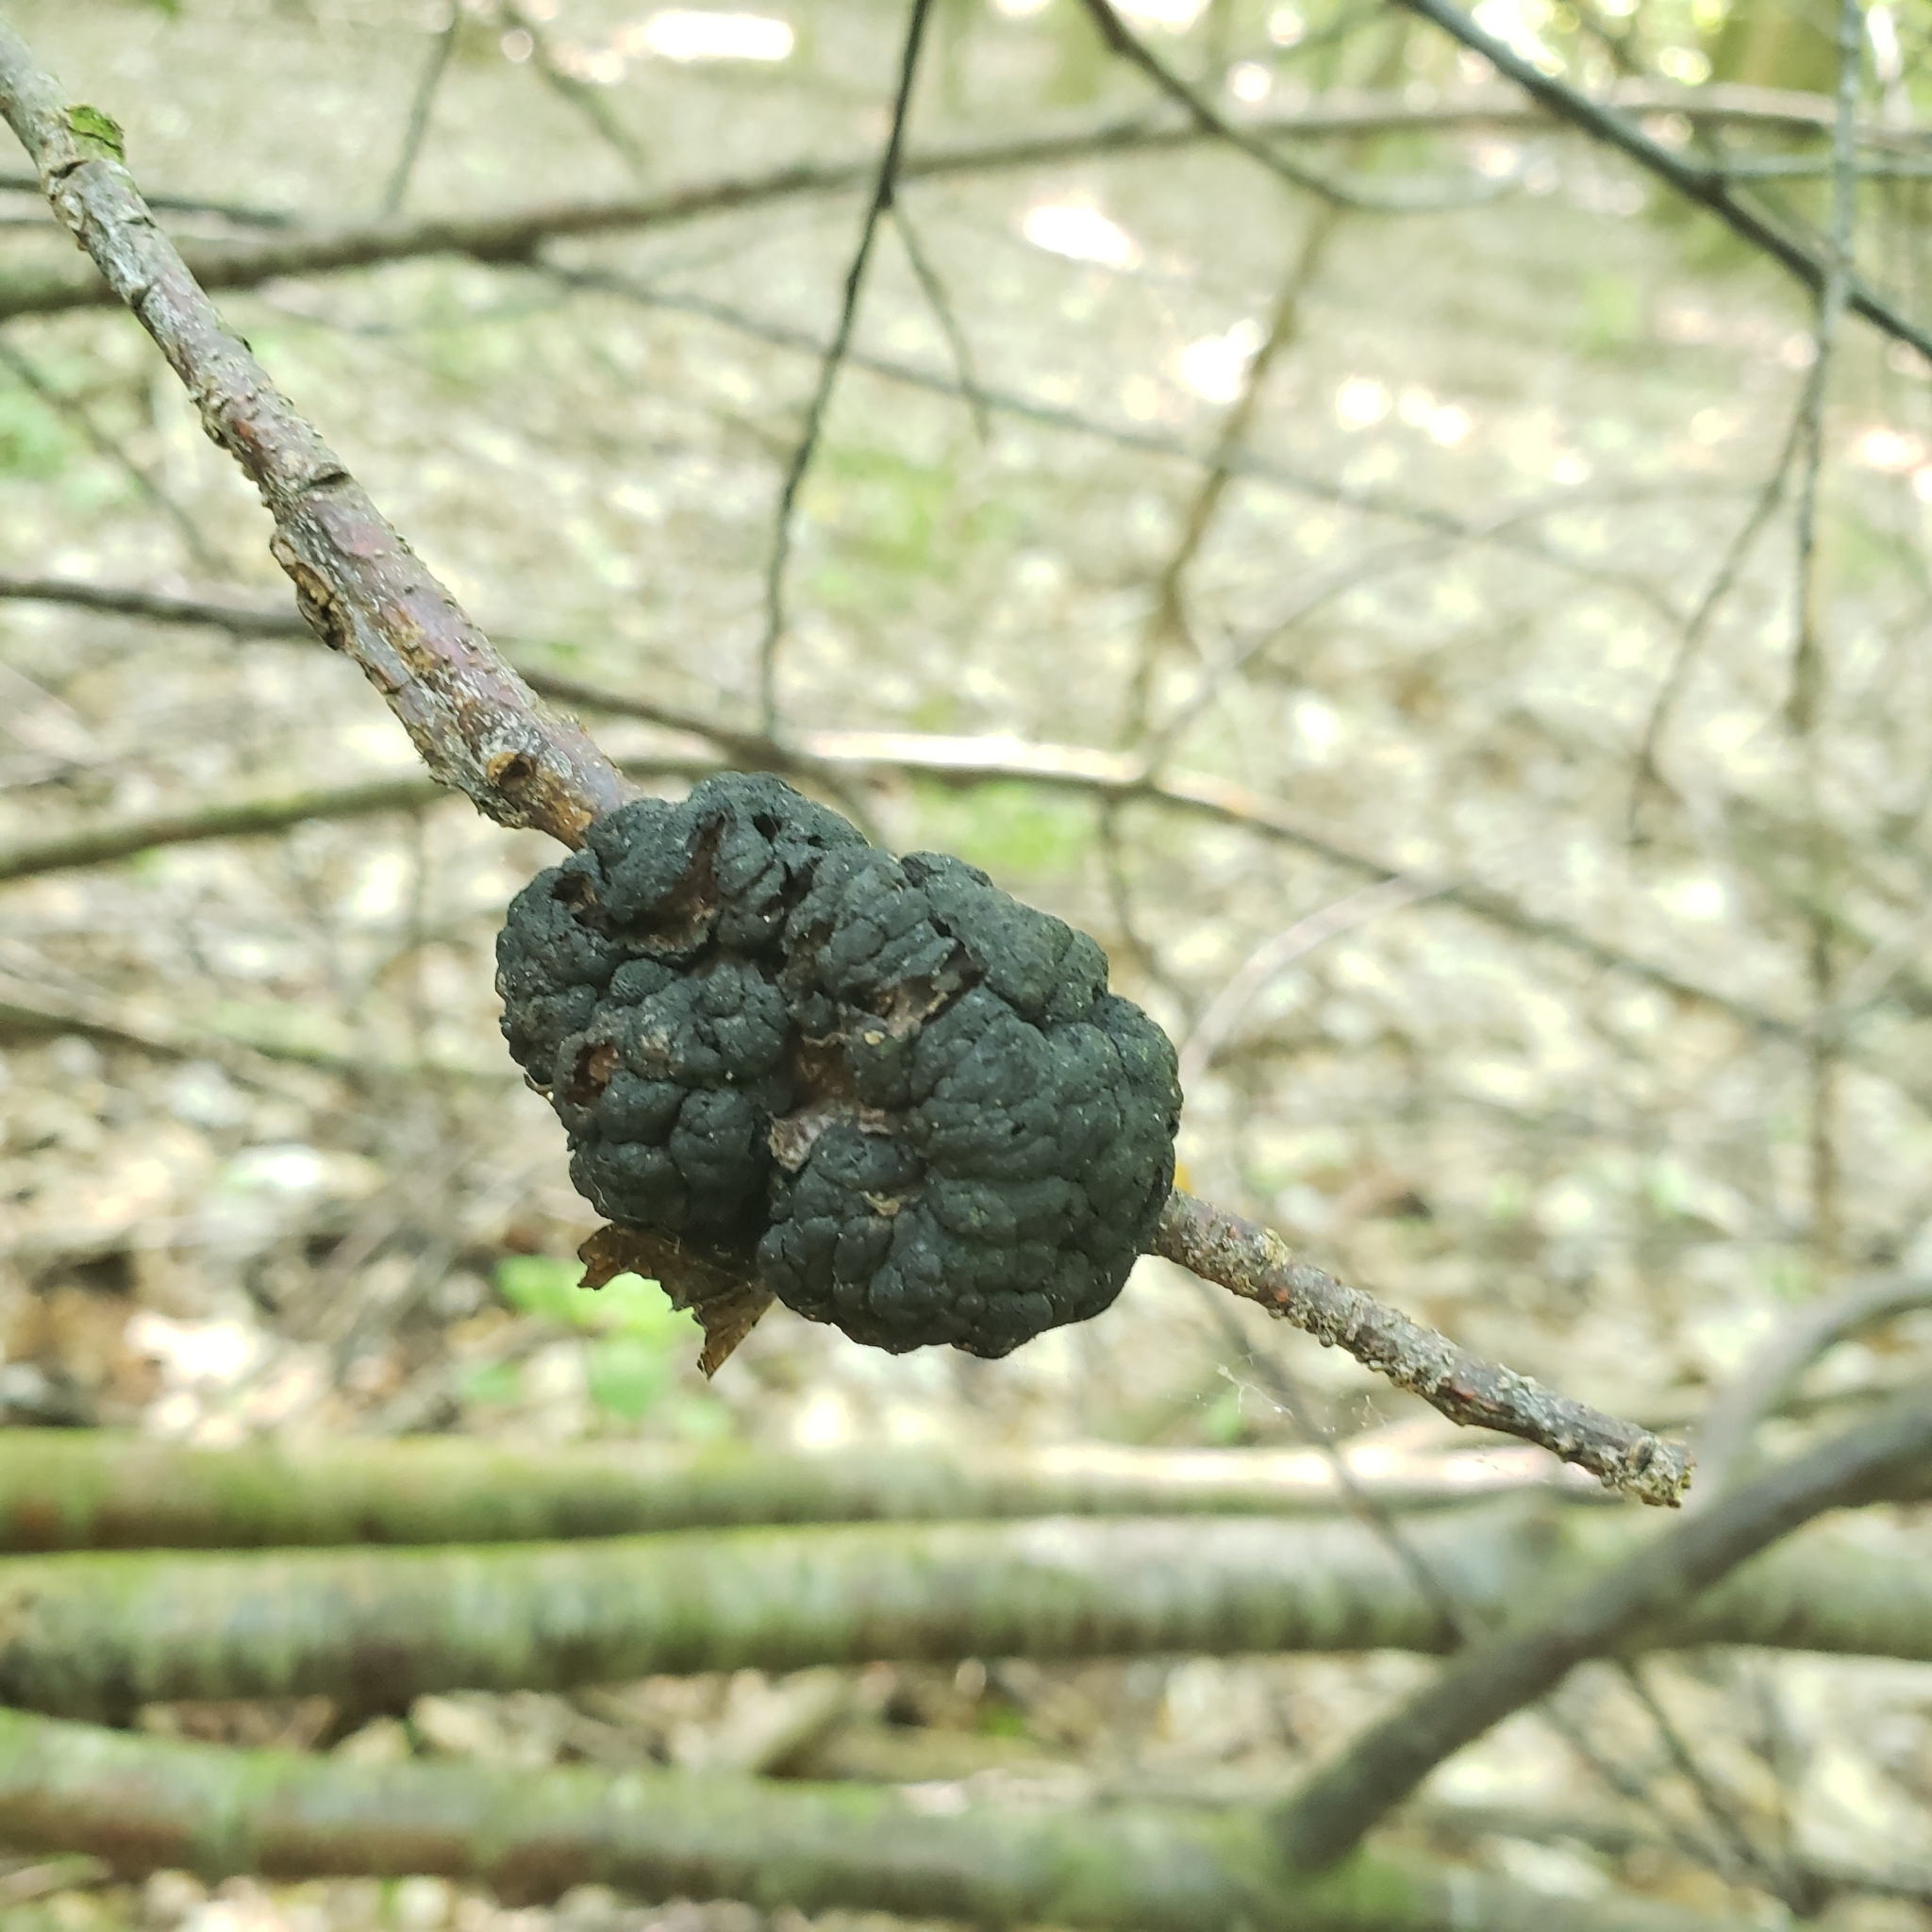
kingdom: Fungi
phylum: Ascomycota
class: Dothideomycetes
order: Venturiales
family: Venturiaceae
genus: Apiosporina
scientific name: Apiosporina morbosa
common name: Black knot
